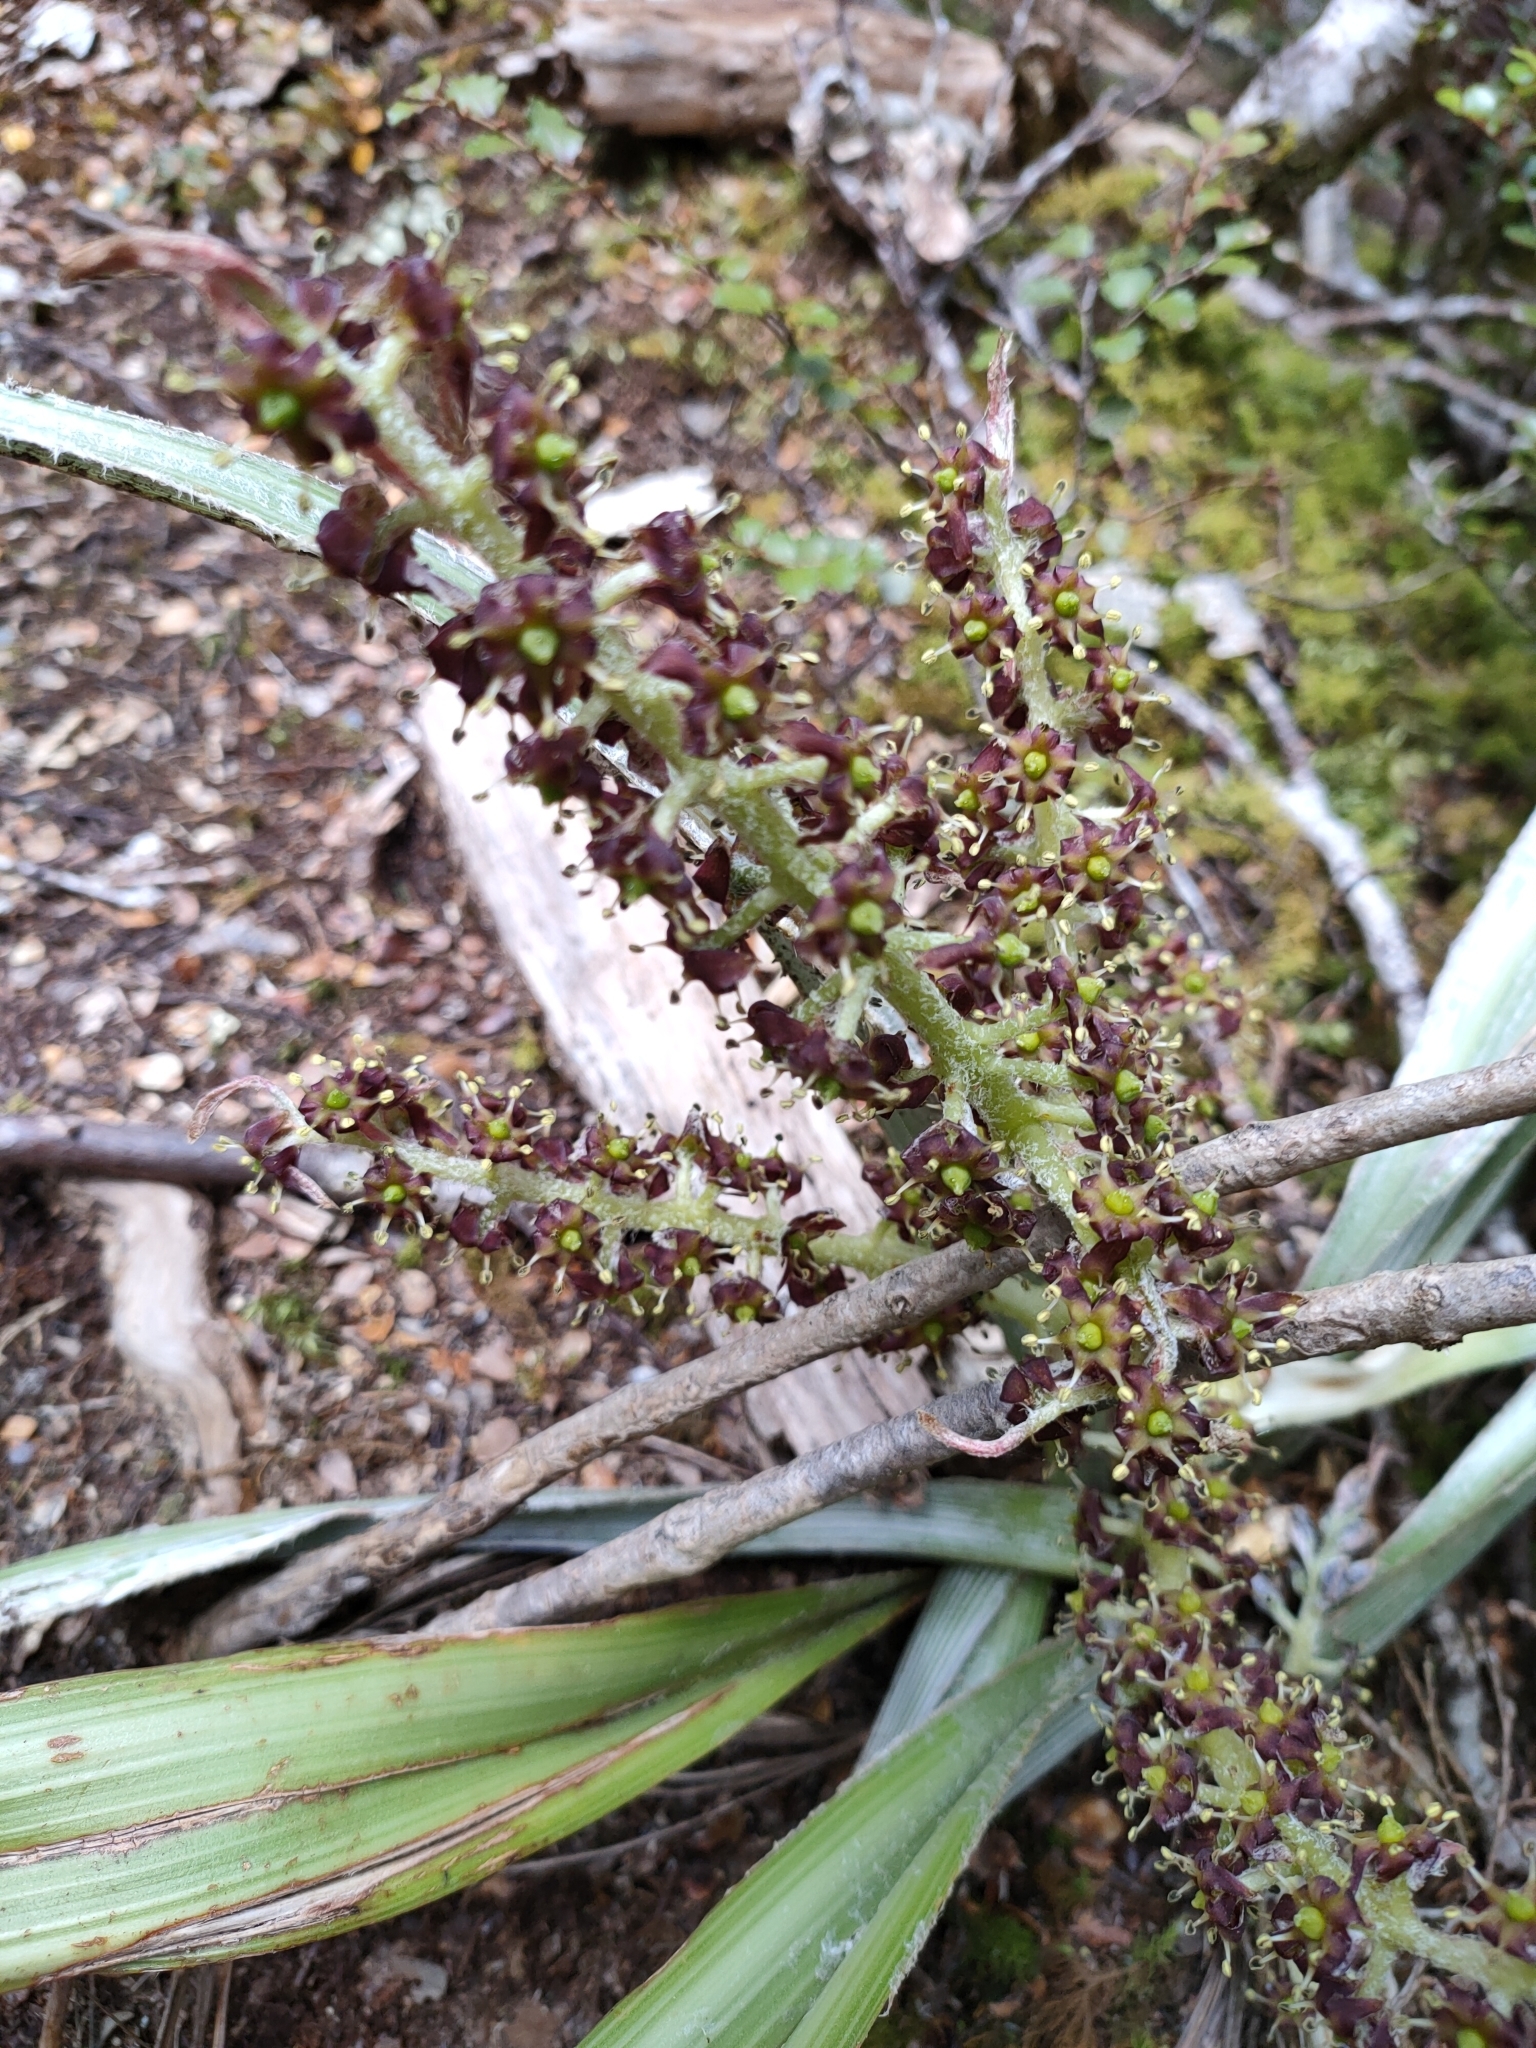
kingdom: Plantae
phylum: Tracheophyta
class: Liliopsida
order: Asparagales
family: Asteliaceae
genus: Astelia
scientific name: Astelia fragrans
